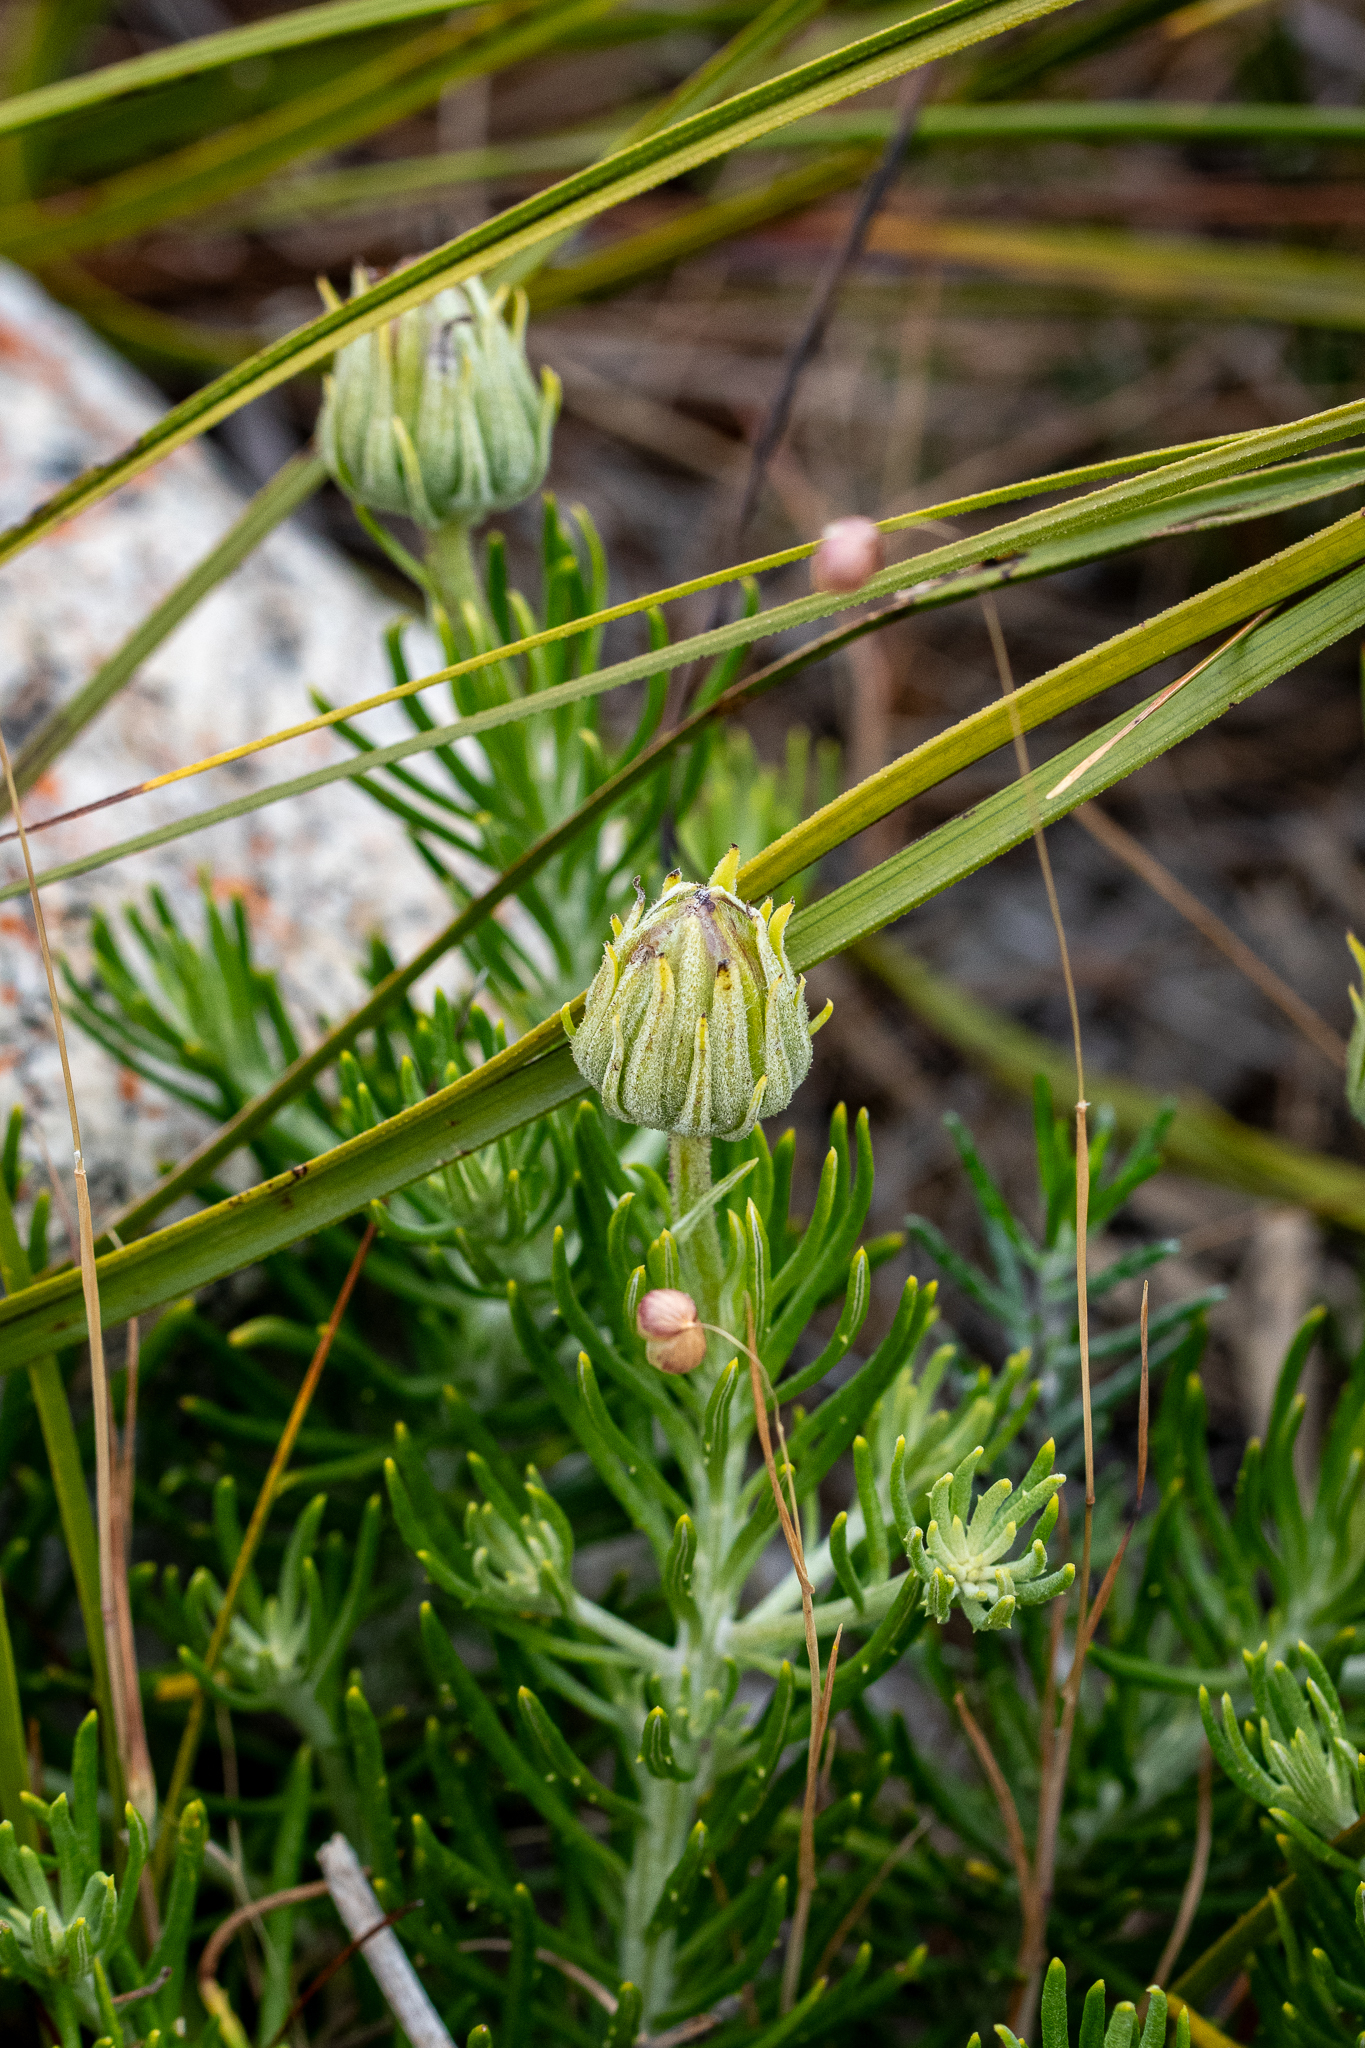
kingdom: Plantae
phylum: Tracheophyta
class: Magnoliopsida
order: Asterales
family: Asteraceae
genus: Heterolepis
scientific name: Heterolepis aliena
